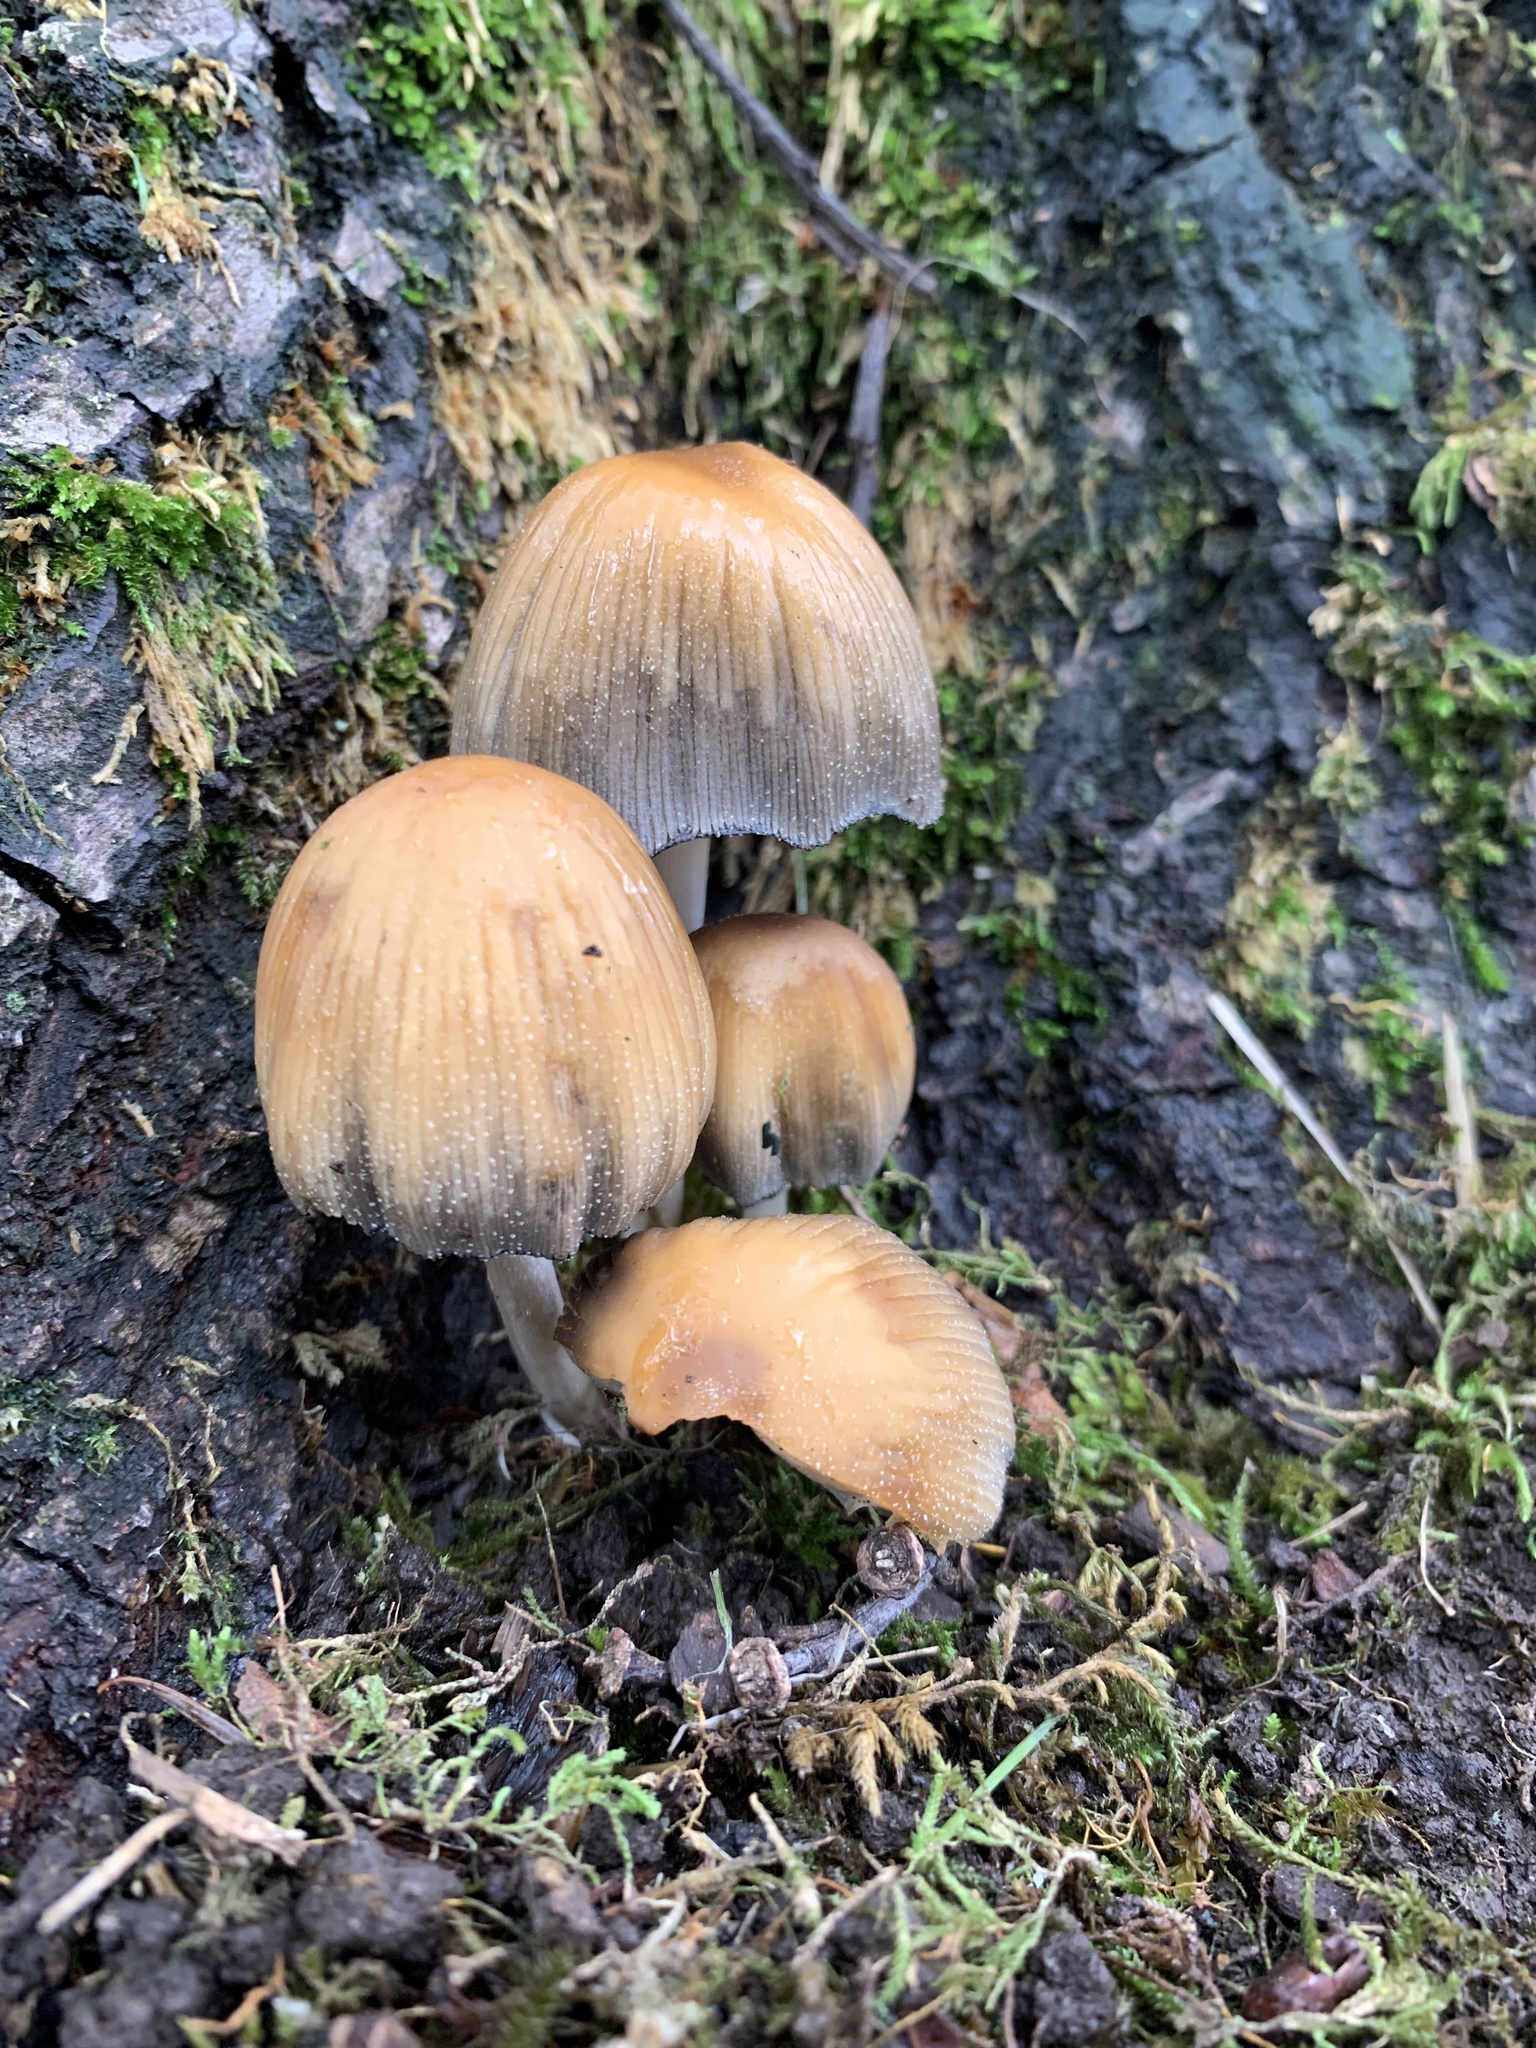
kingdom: Fungi
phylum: Basidiomycota
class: Agaricomycetes
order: Agaricales
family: Psathyrellaceae
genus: Coprinellus
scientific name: Coprinellus micaceus
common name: Glistening ink-cap
